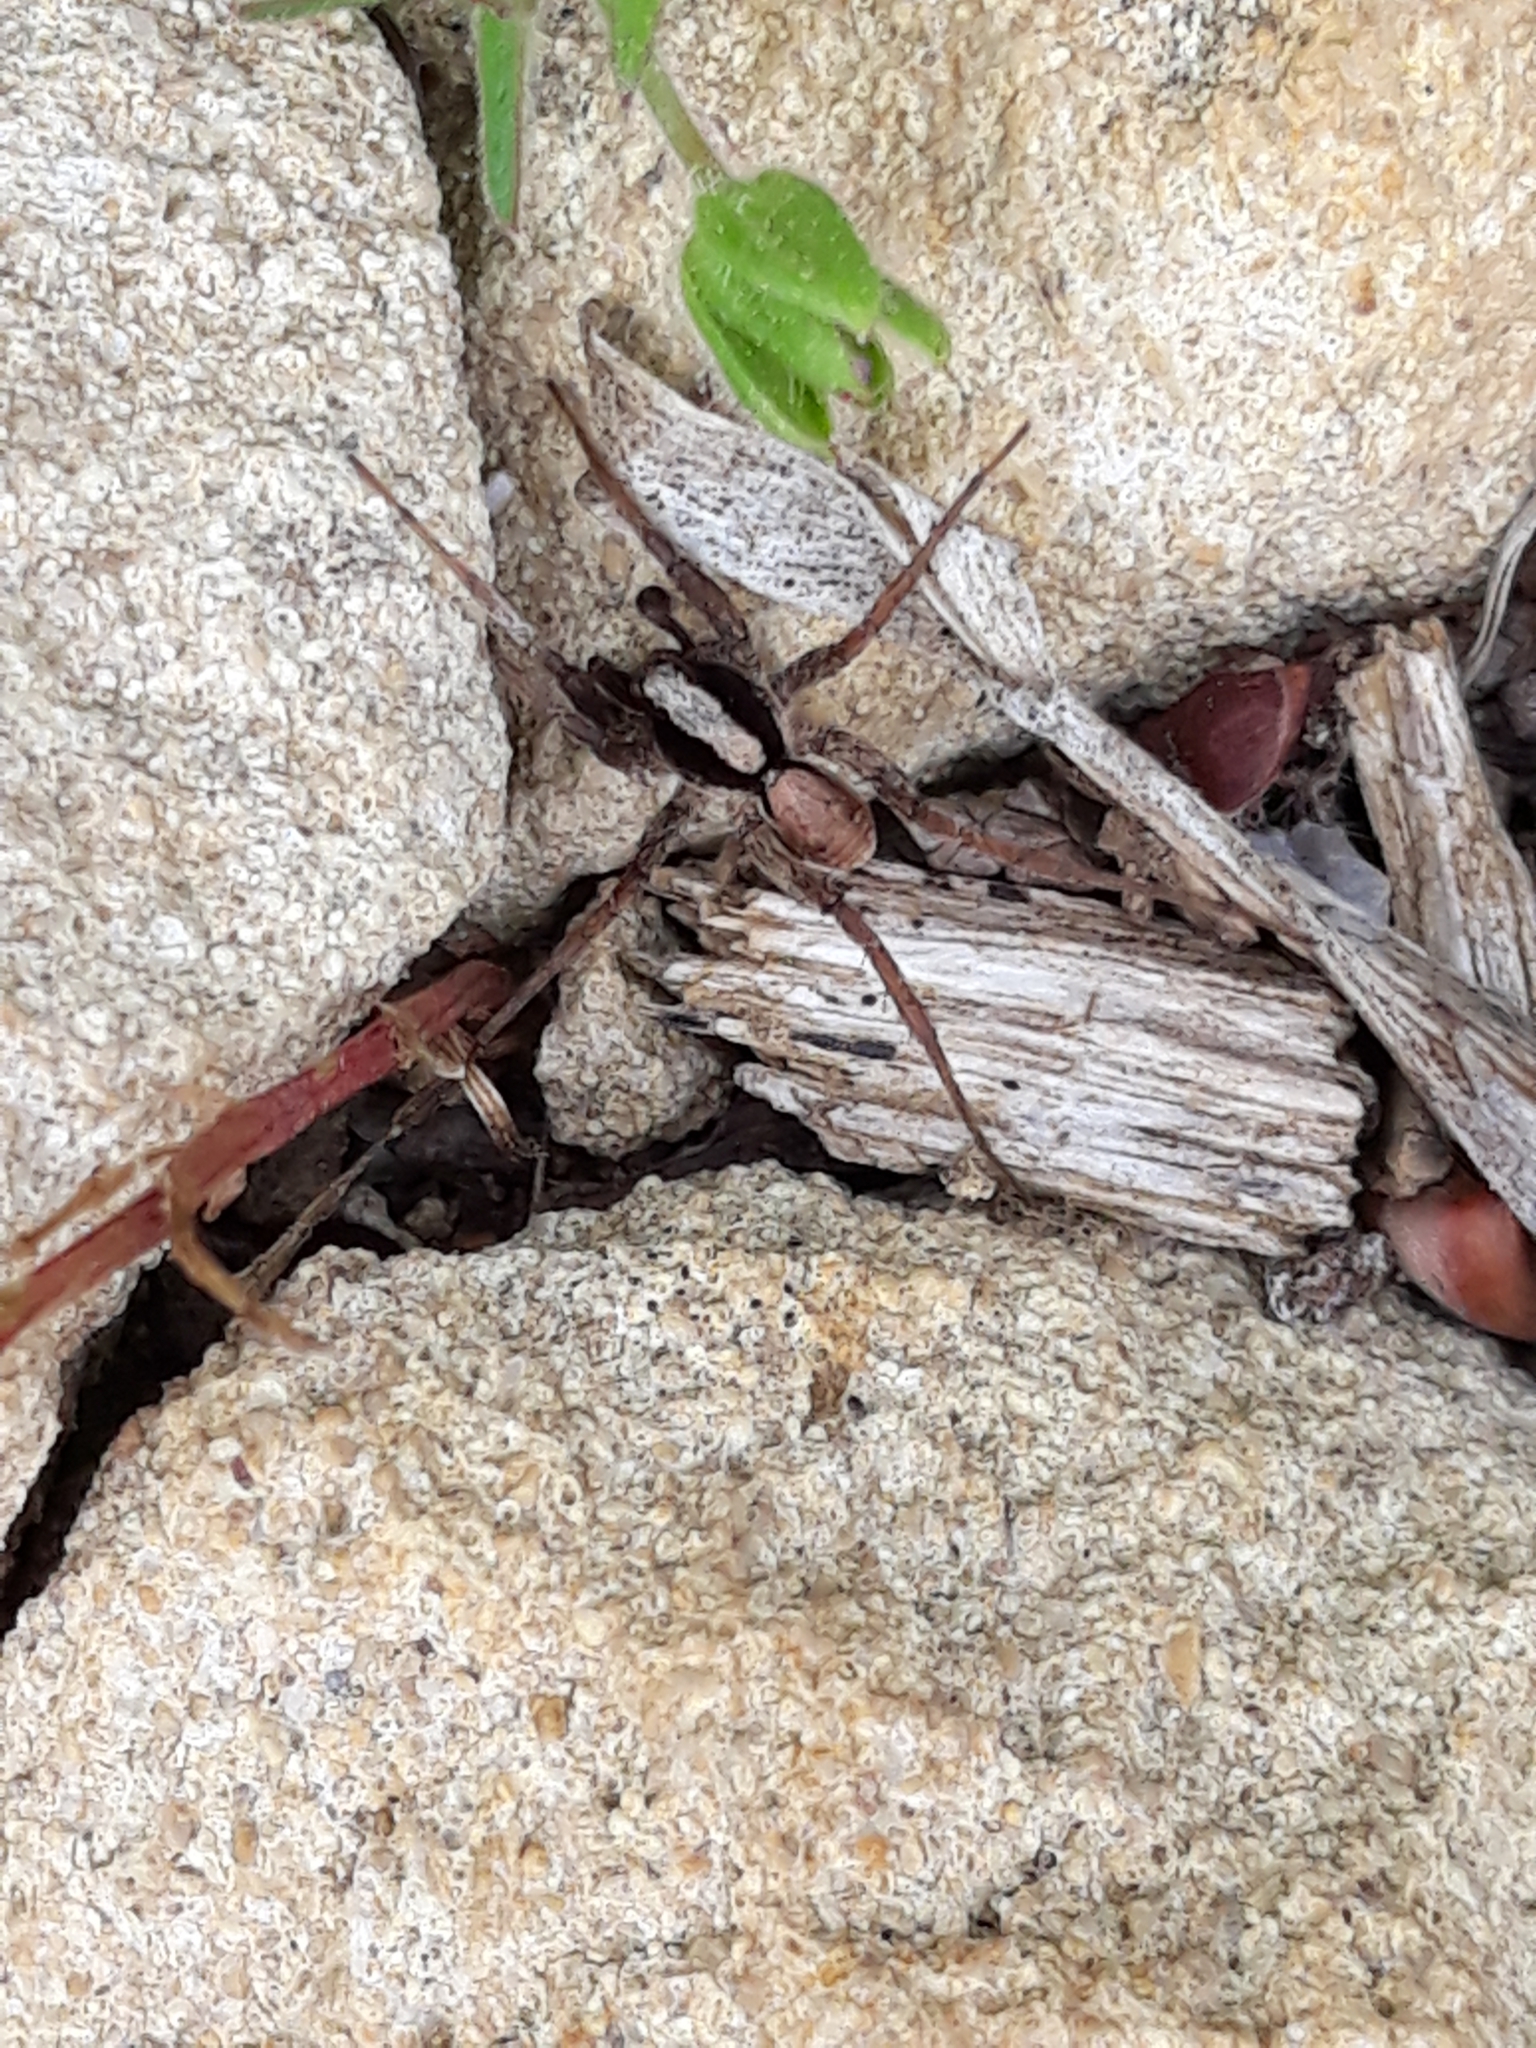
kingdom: Animalia
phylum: Arthropoda
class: Arachnida
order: Araneae
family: Lycosidae
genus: Xerolycosa
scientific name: Xerolycosa nemoralis
